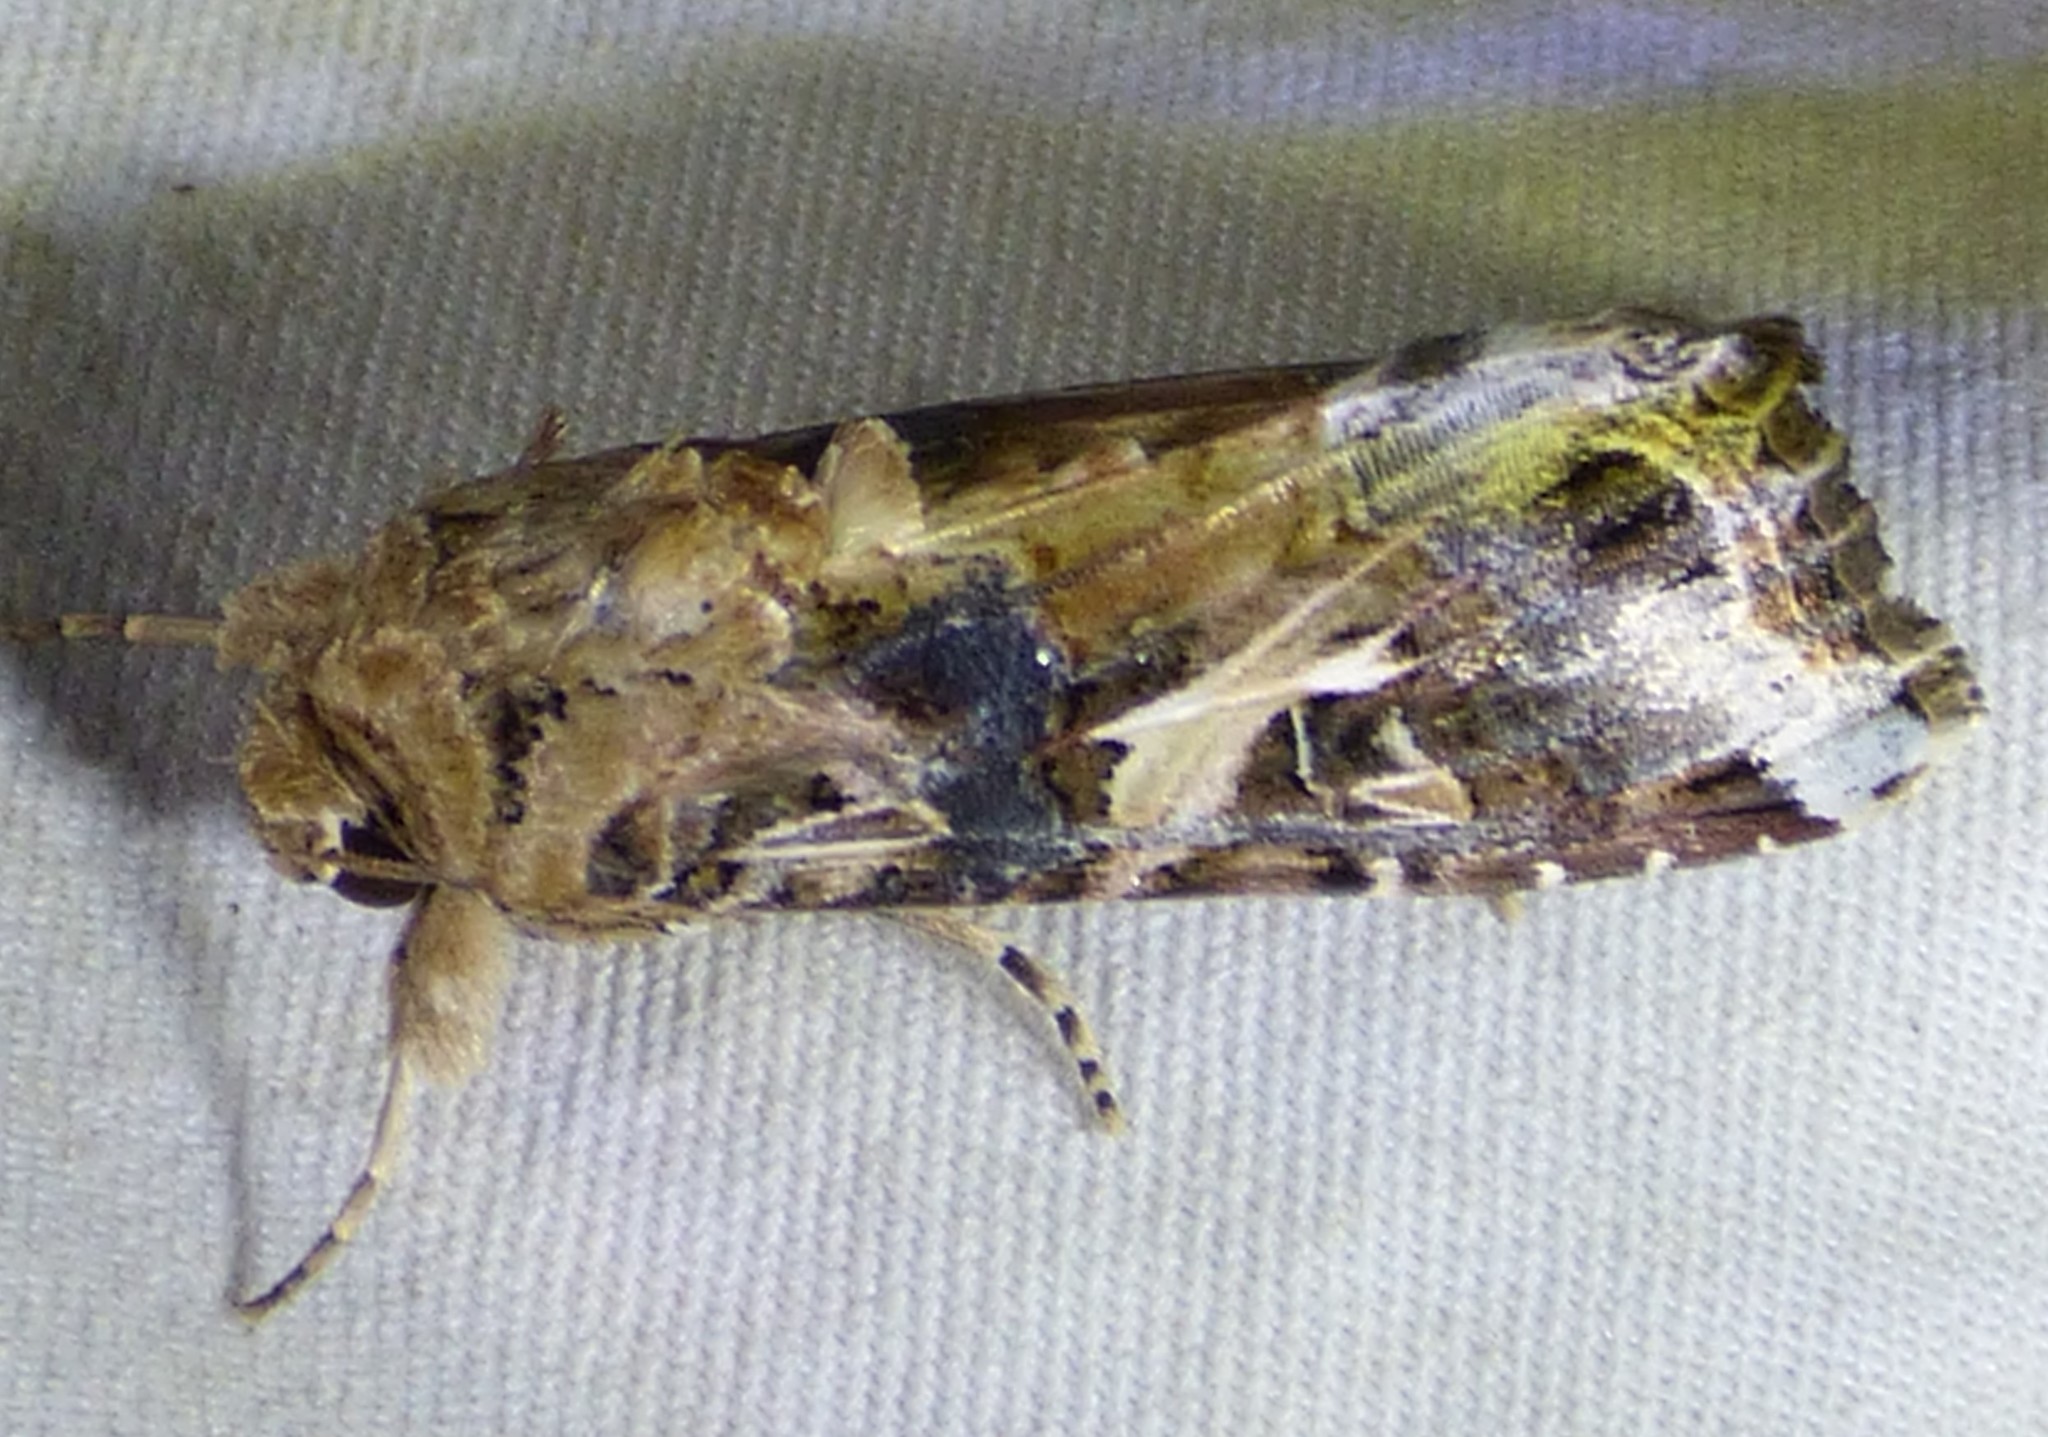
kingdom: Animalia
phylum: Arthropoda
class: Insecta
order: Lepidoptera
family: Noctuidae
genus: Spodoptera
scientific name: Spodoptera ornithogalli
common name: Yellow-striped armyworm
